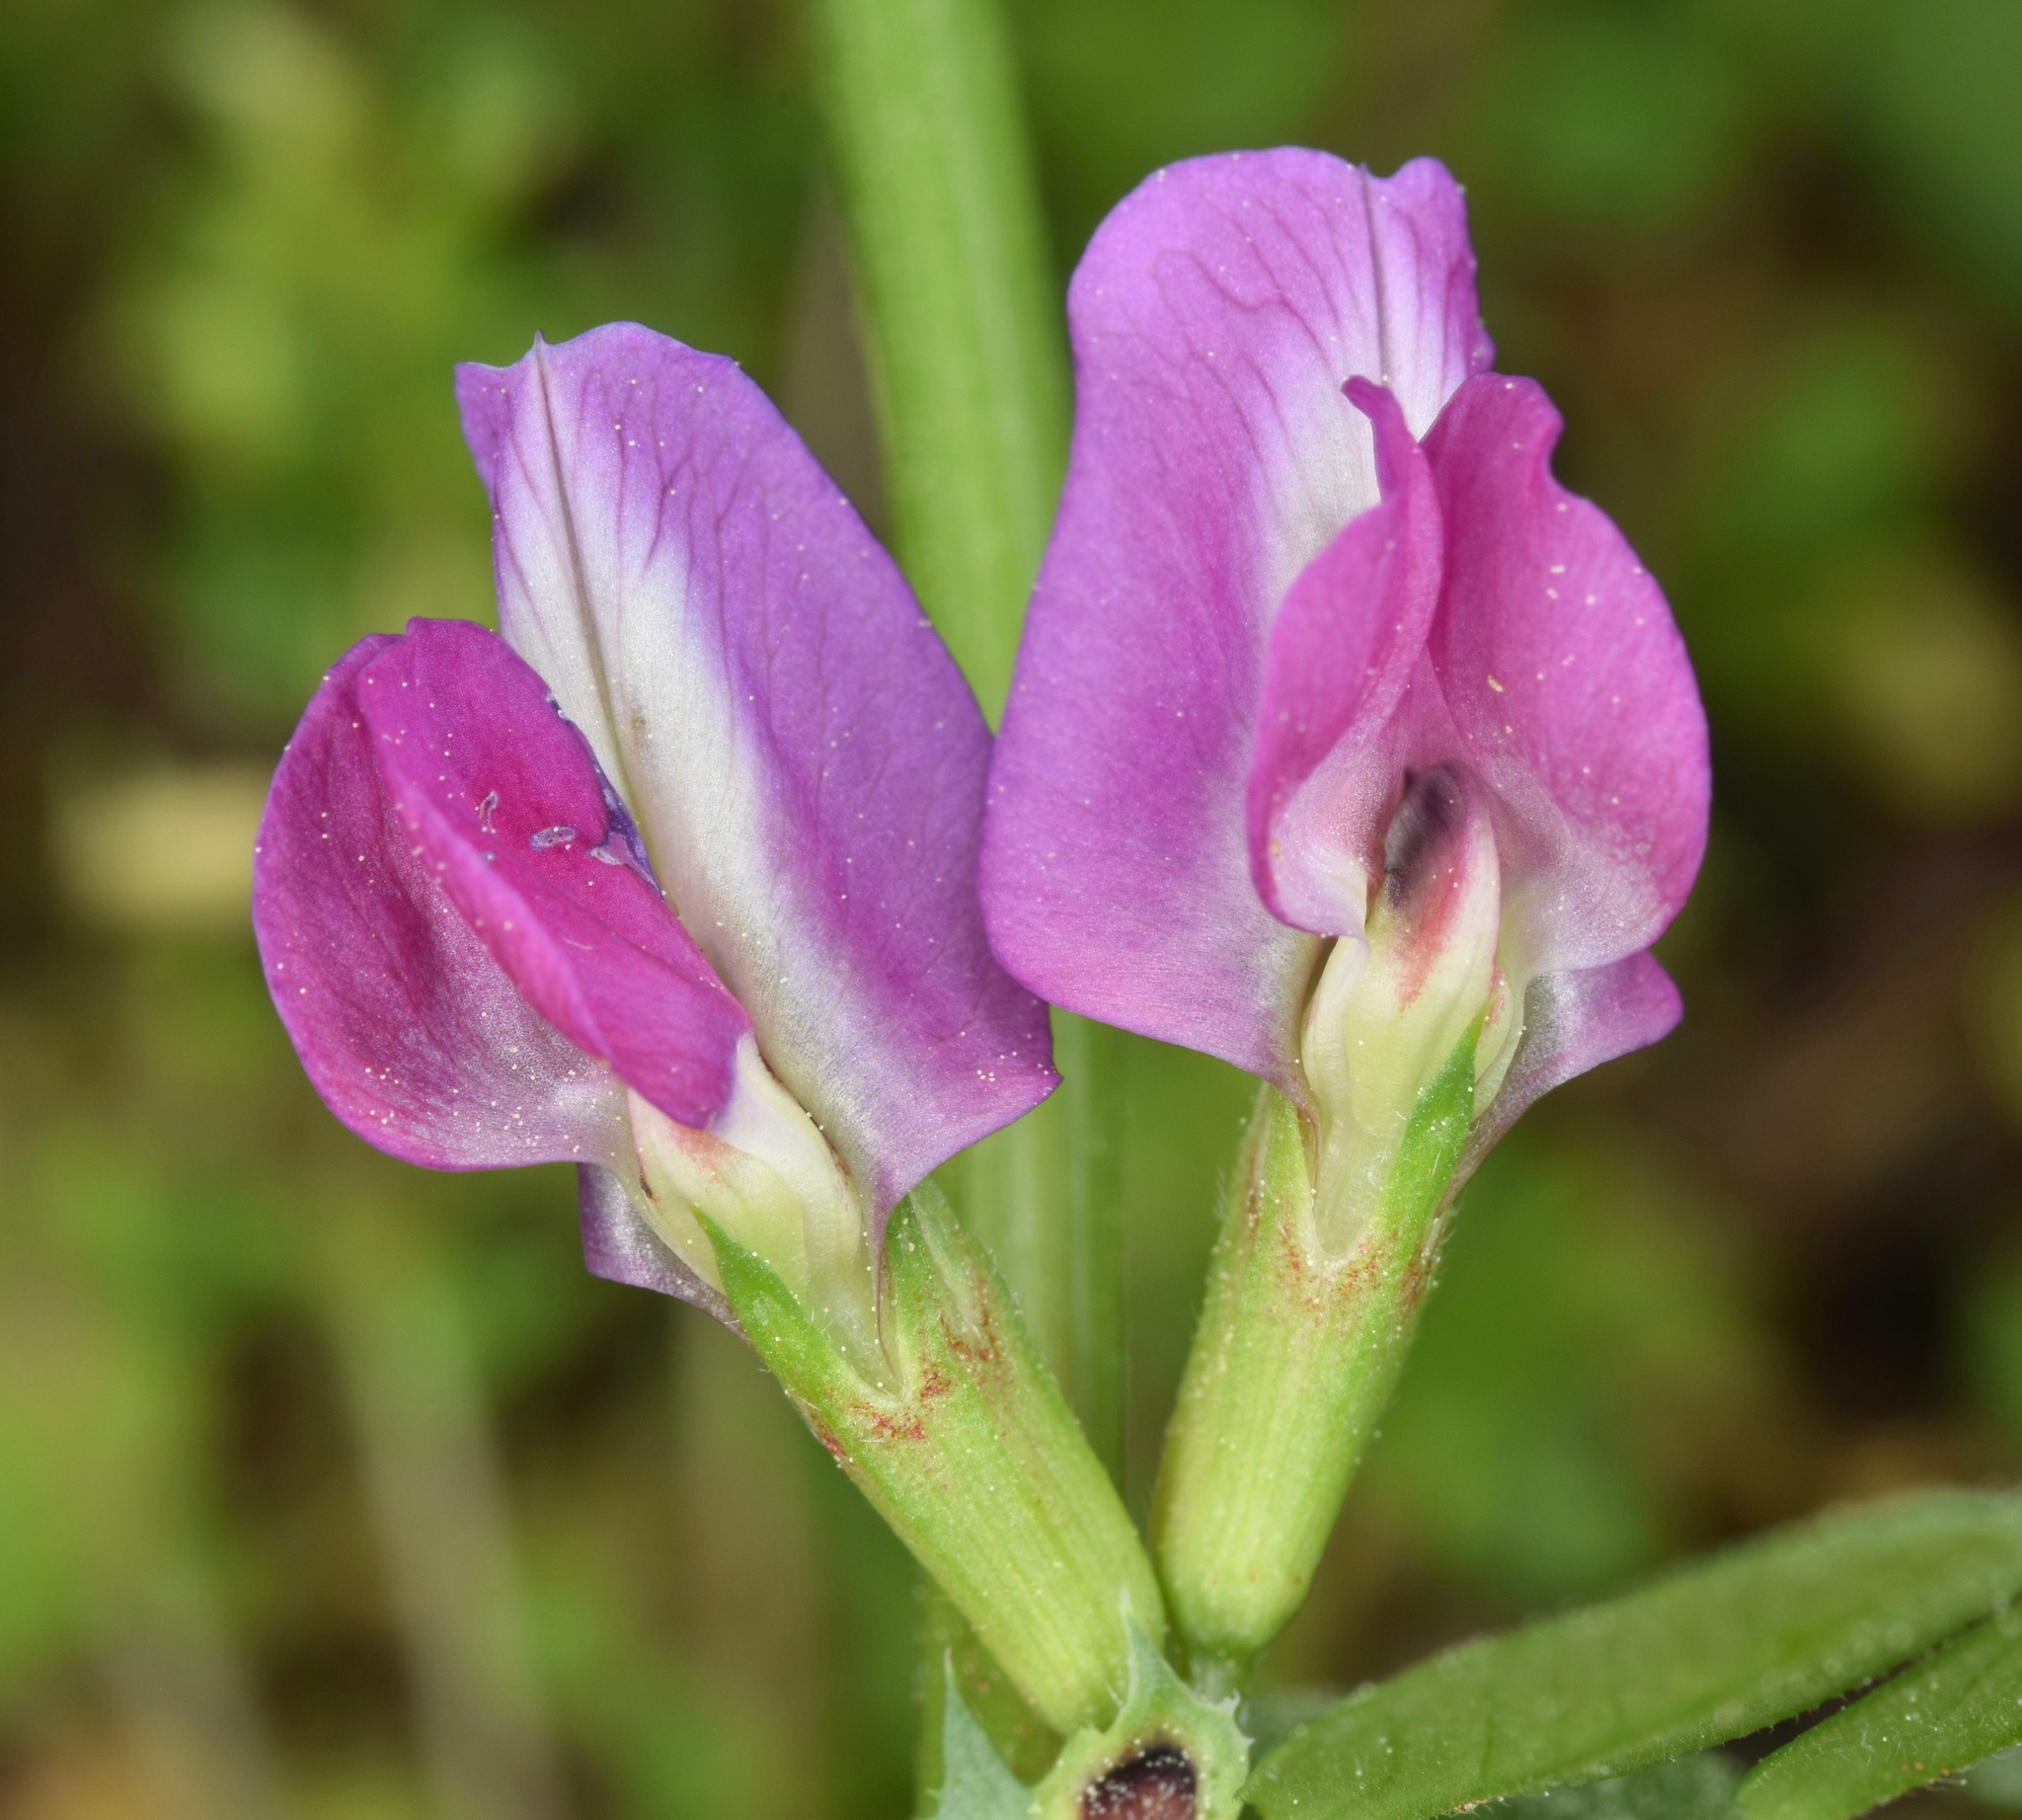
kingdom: Plantae
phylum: Tracheophyta
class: Magnoliopsida
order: Fabales
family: Fabaceae
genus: Vicia
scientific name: Vicia sativa
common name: Garden vetch
